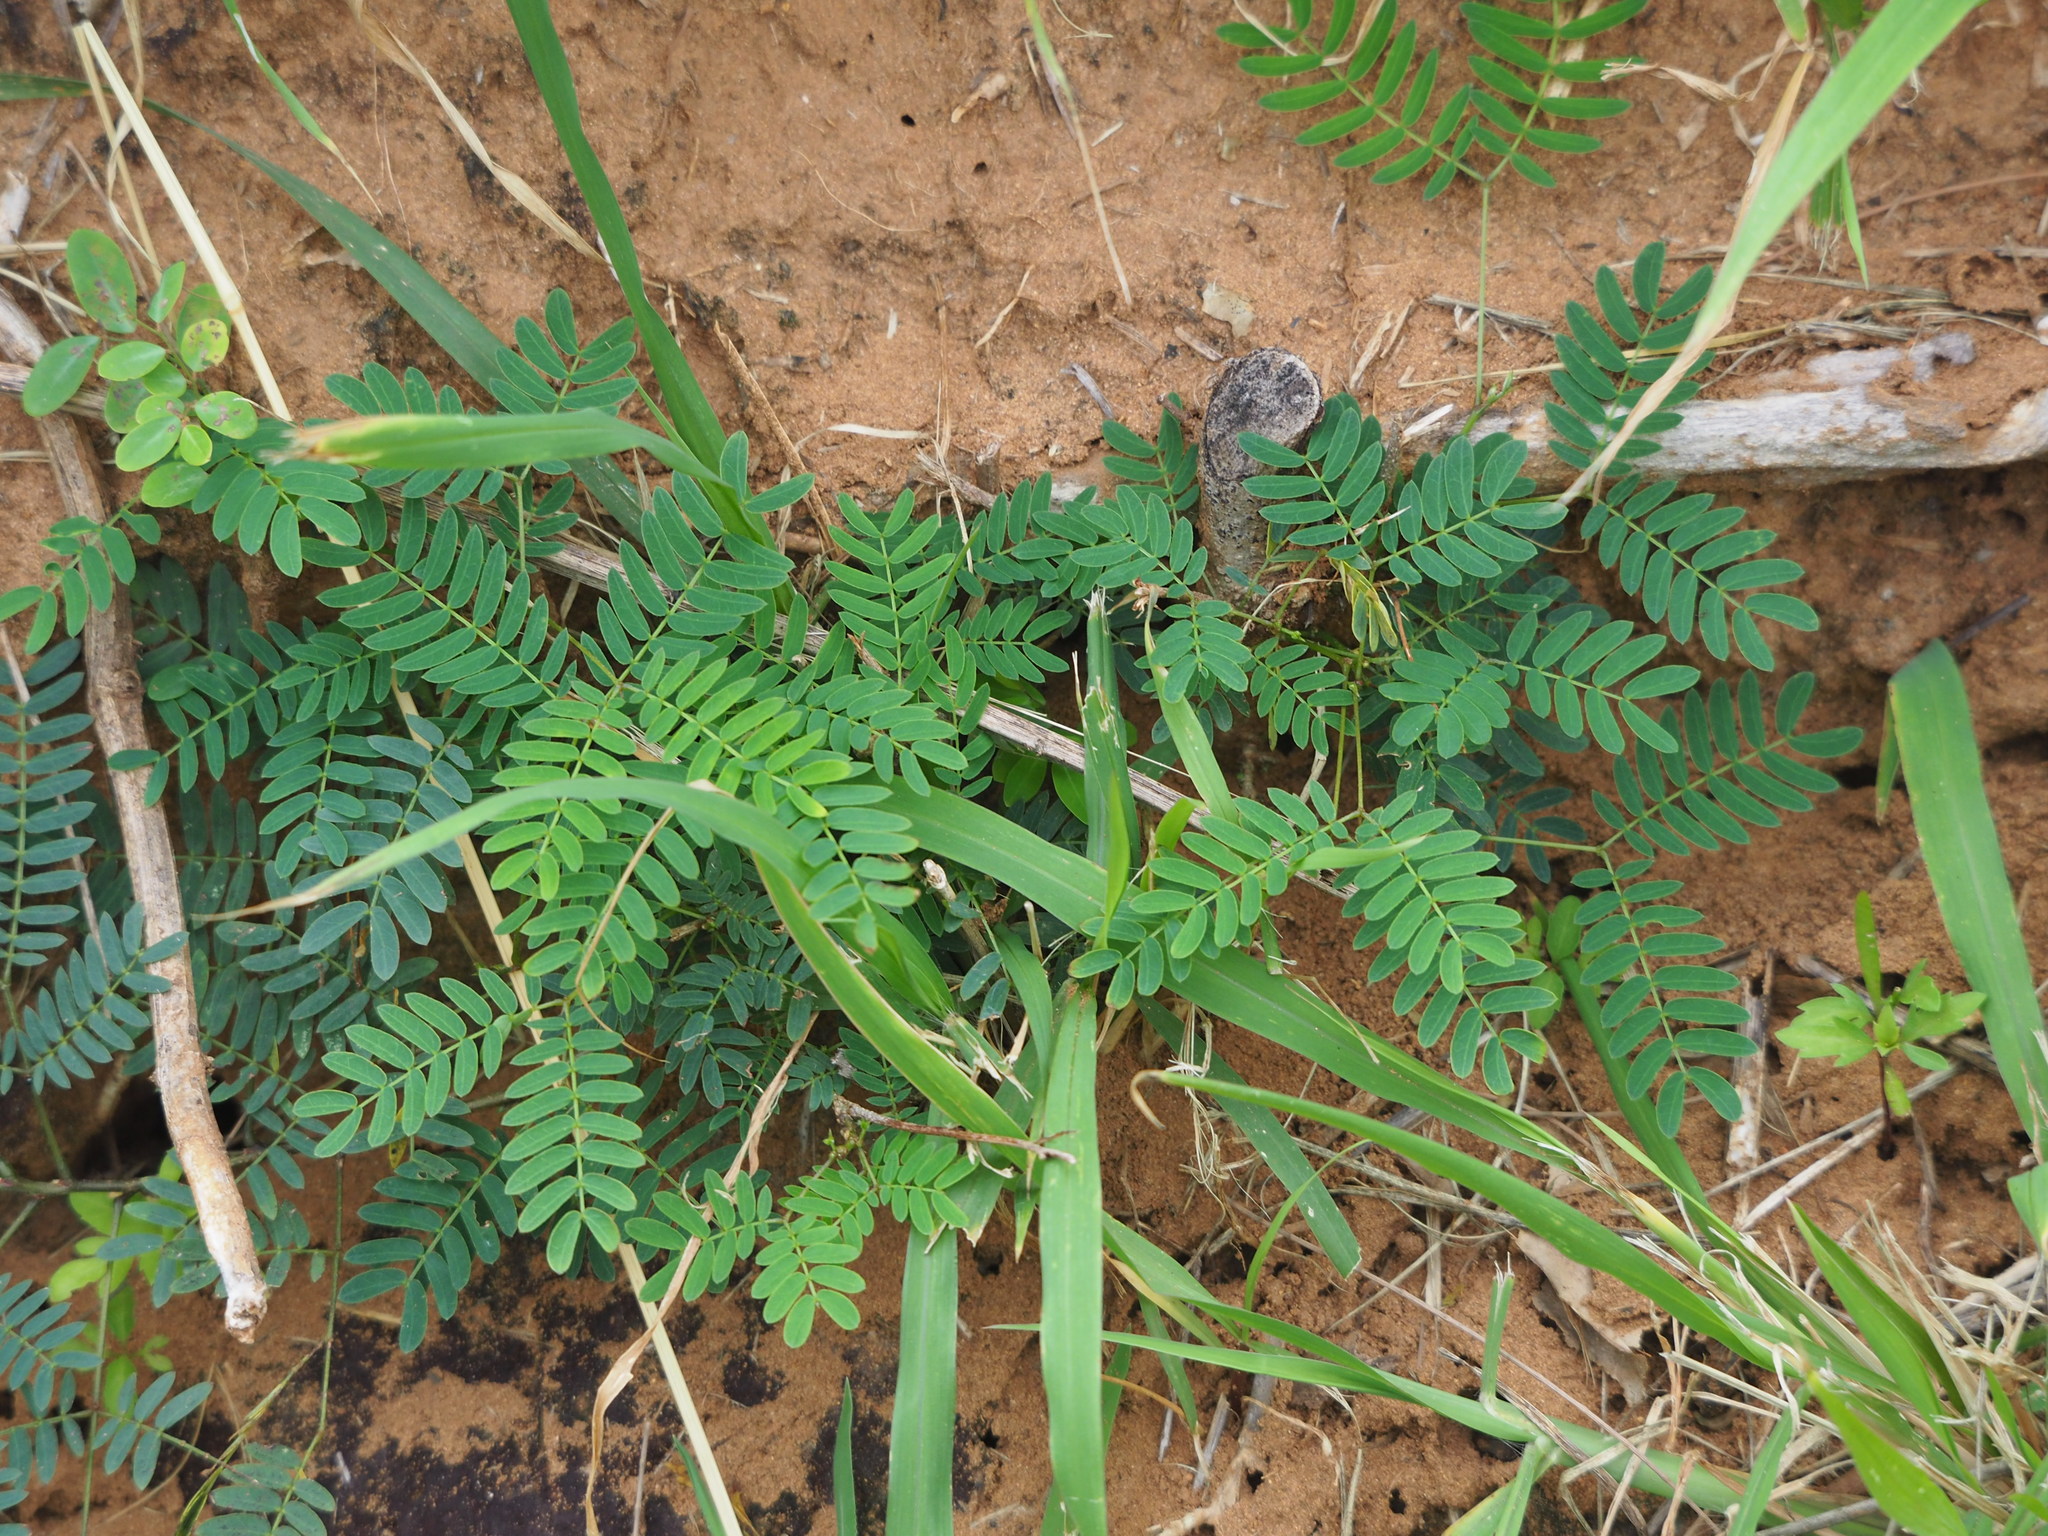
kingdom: Plantae
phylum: Tracheophyta
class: Magnoliopsida
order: Fabales
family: Fabaceae
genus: Leucaena
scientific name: Leucaena leucocephala
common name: White leadtree
